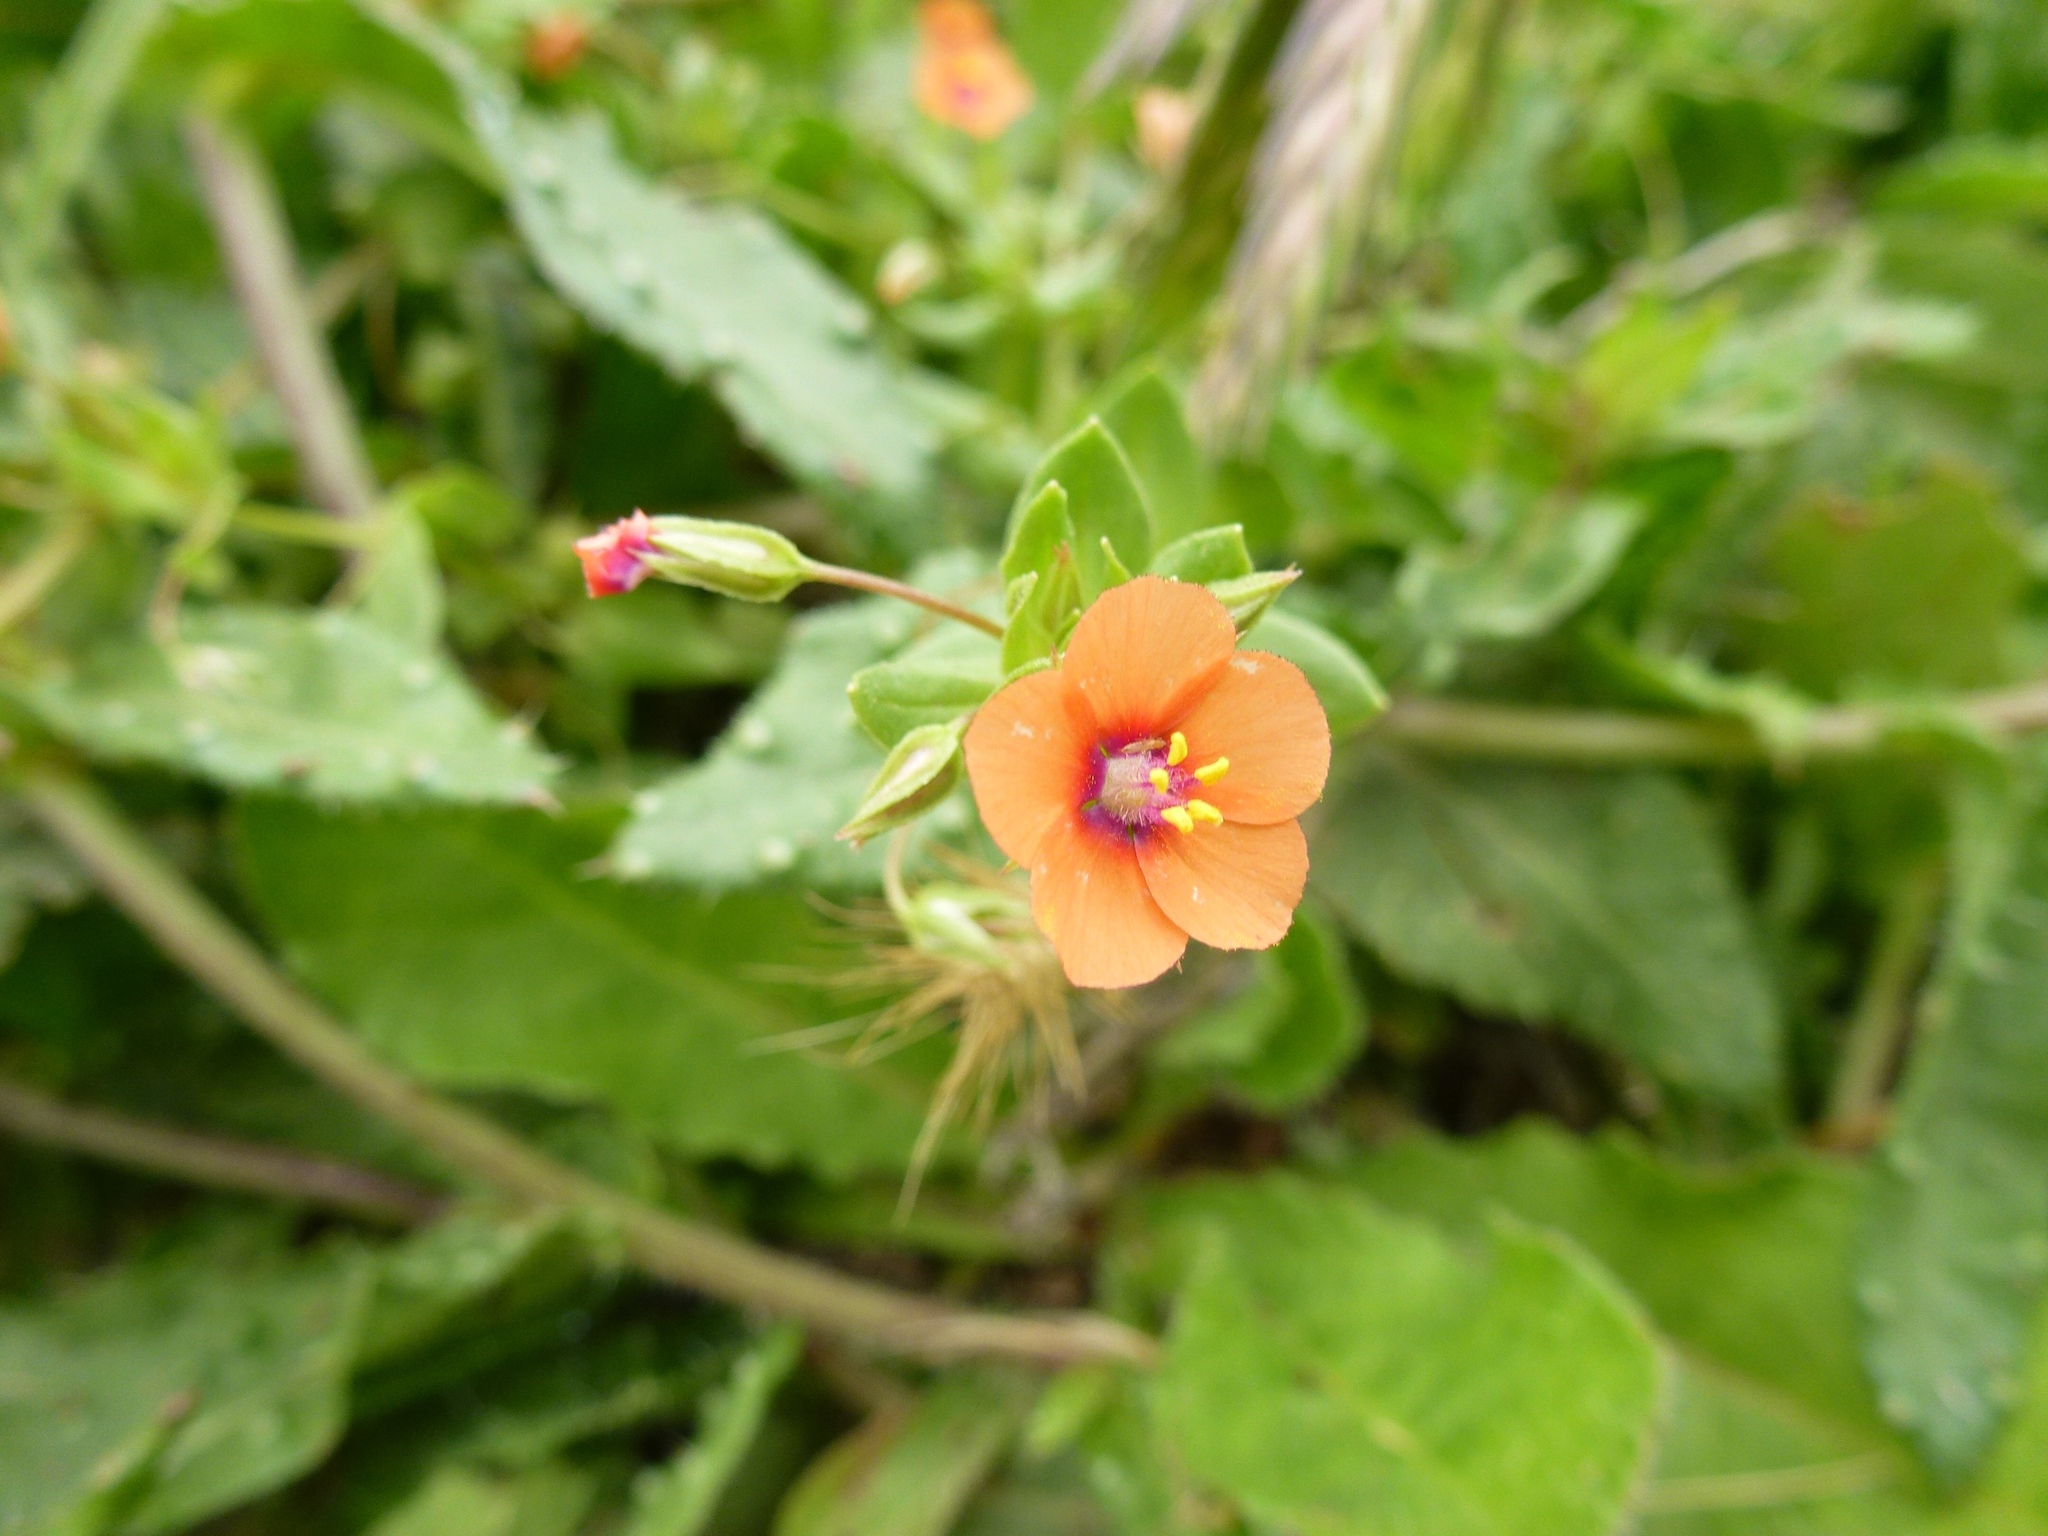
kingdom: Plantae
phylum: Tracheophyta
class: Magnoliopsida
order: Ericales
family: Primulaceae
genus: Lysimachia
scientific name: Lysimachia arvensis
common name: Scarlet pimpernel
